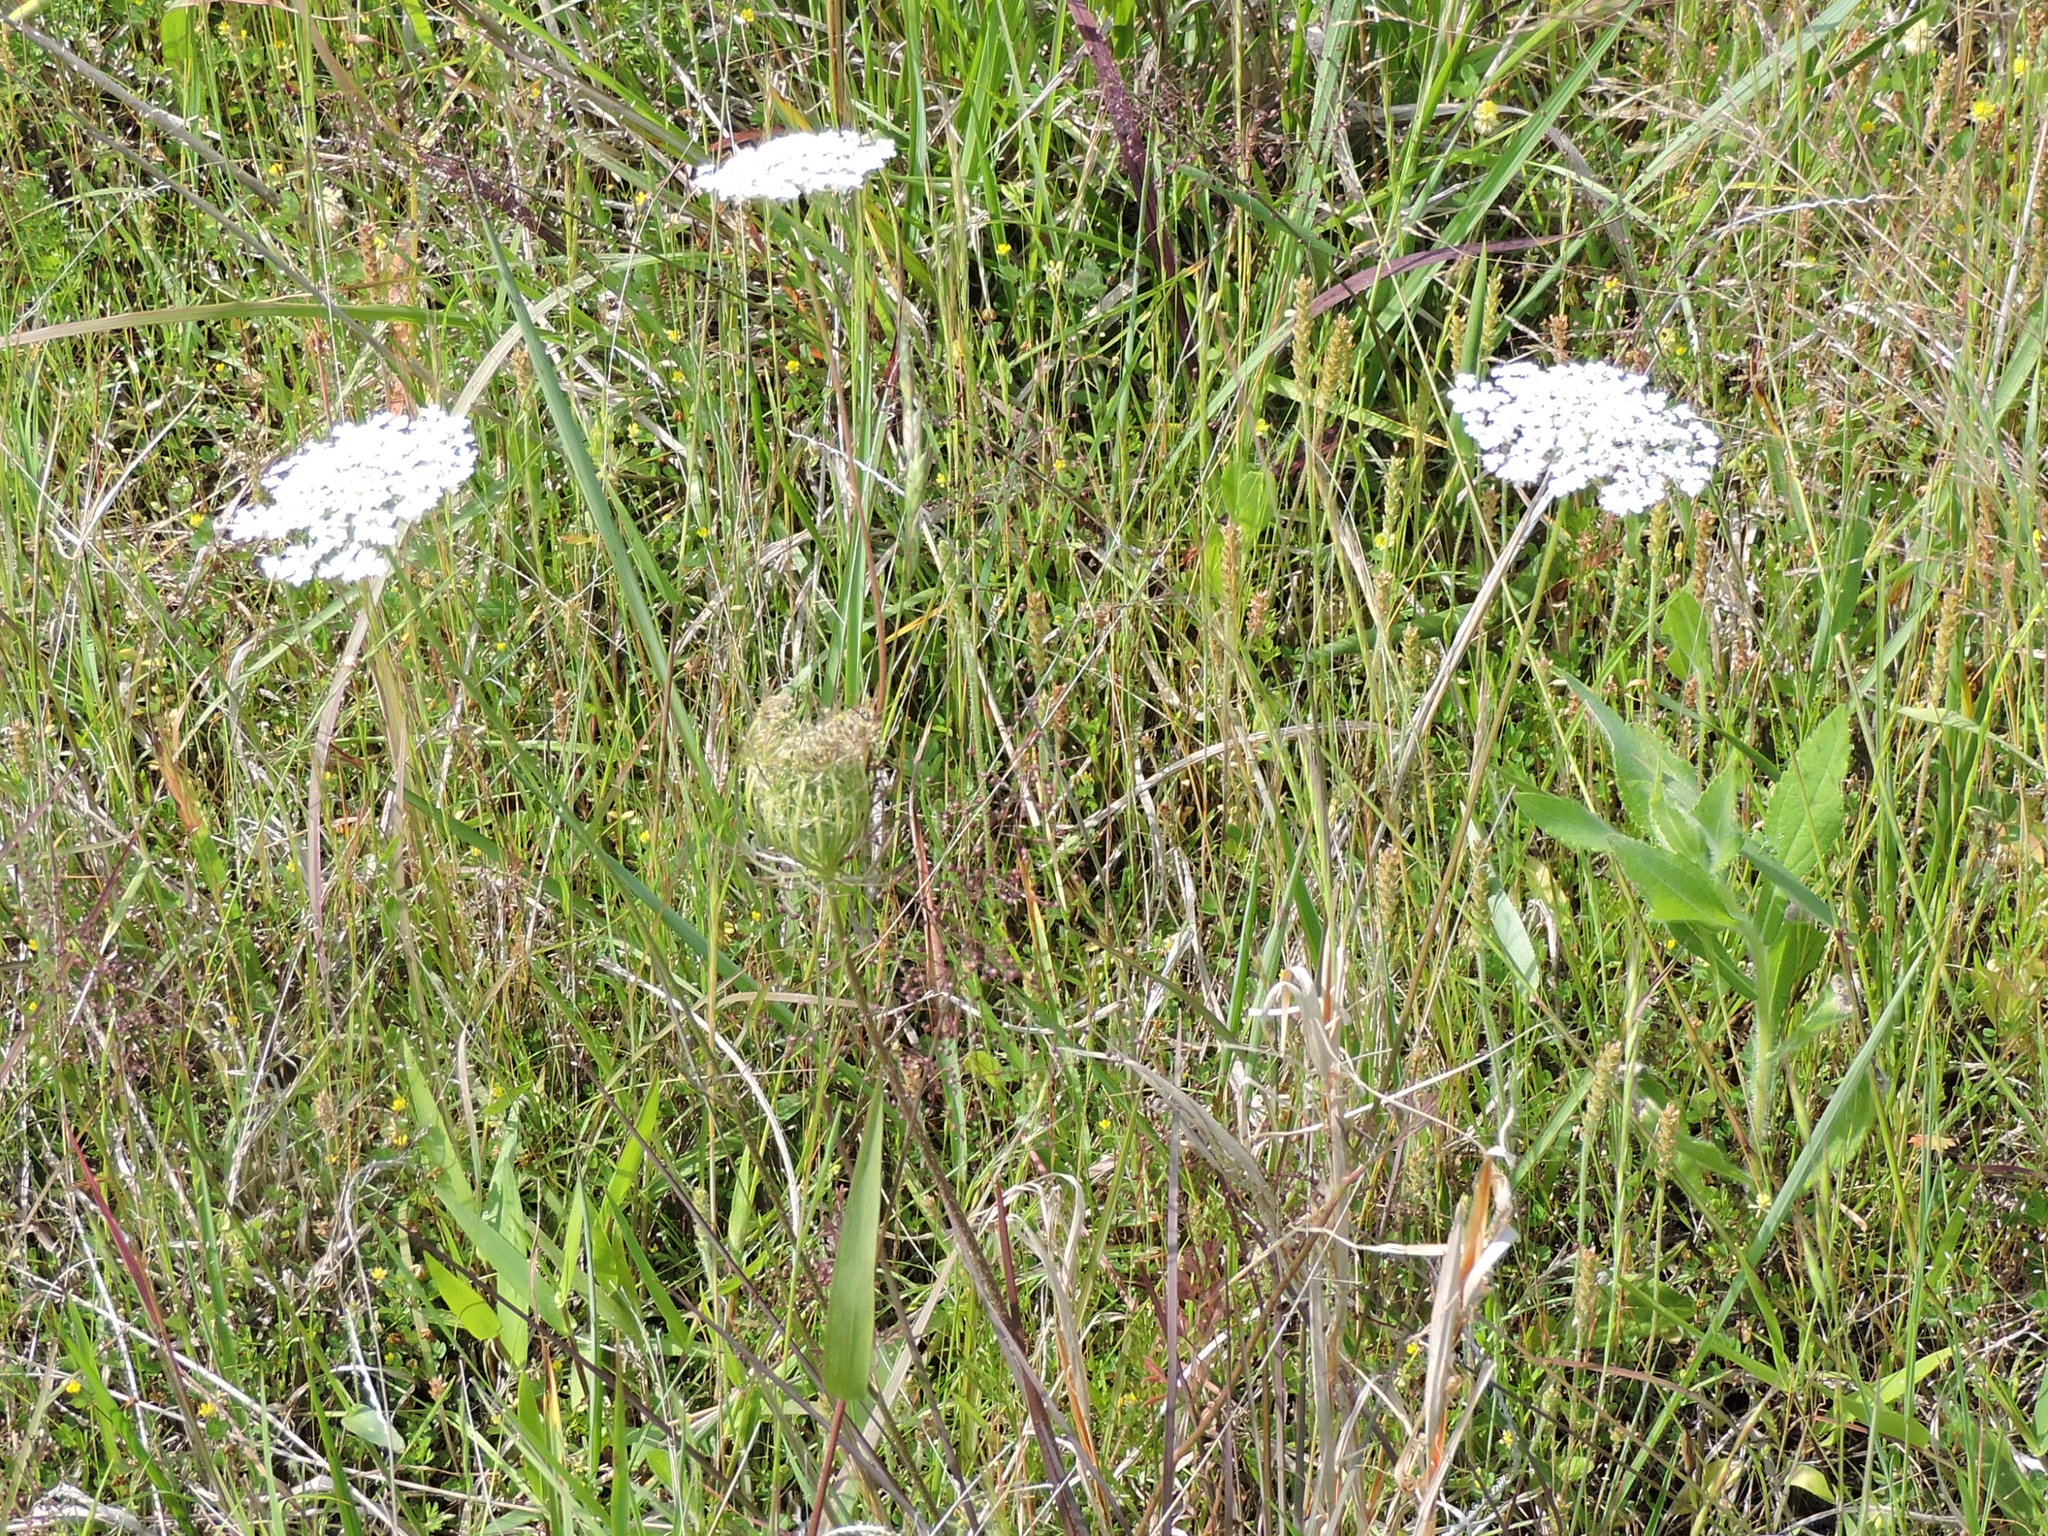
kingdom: Plantae
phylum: Tracheophyta
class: Magnoliopsida
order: Apiales
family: Apiaceae
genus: Daucus
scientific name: Daucus carota
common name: Wild carrot
